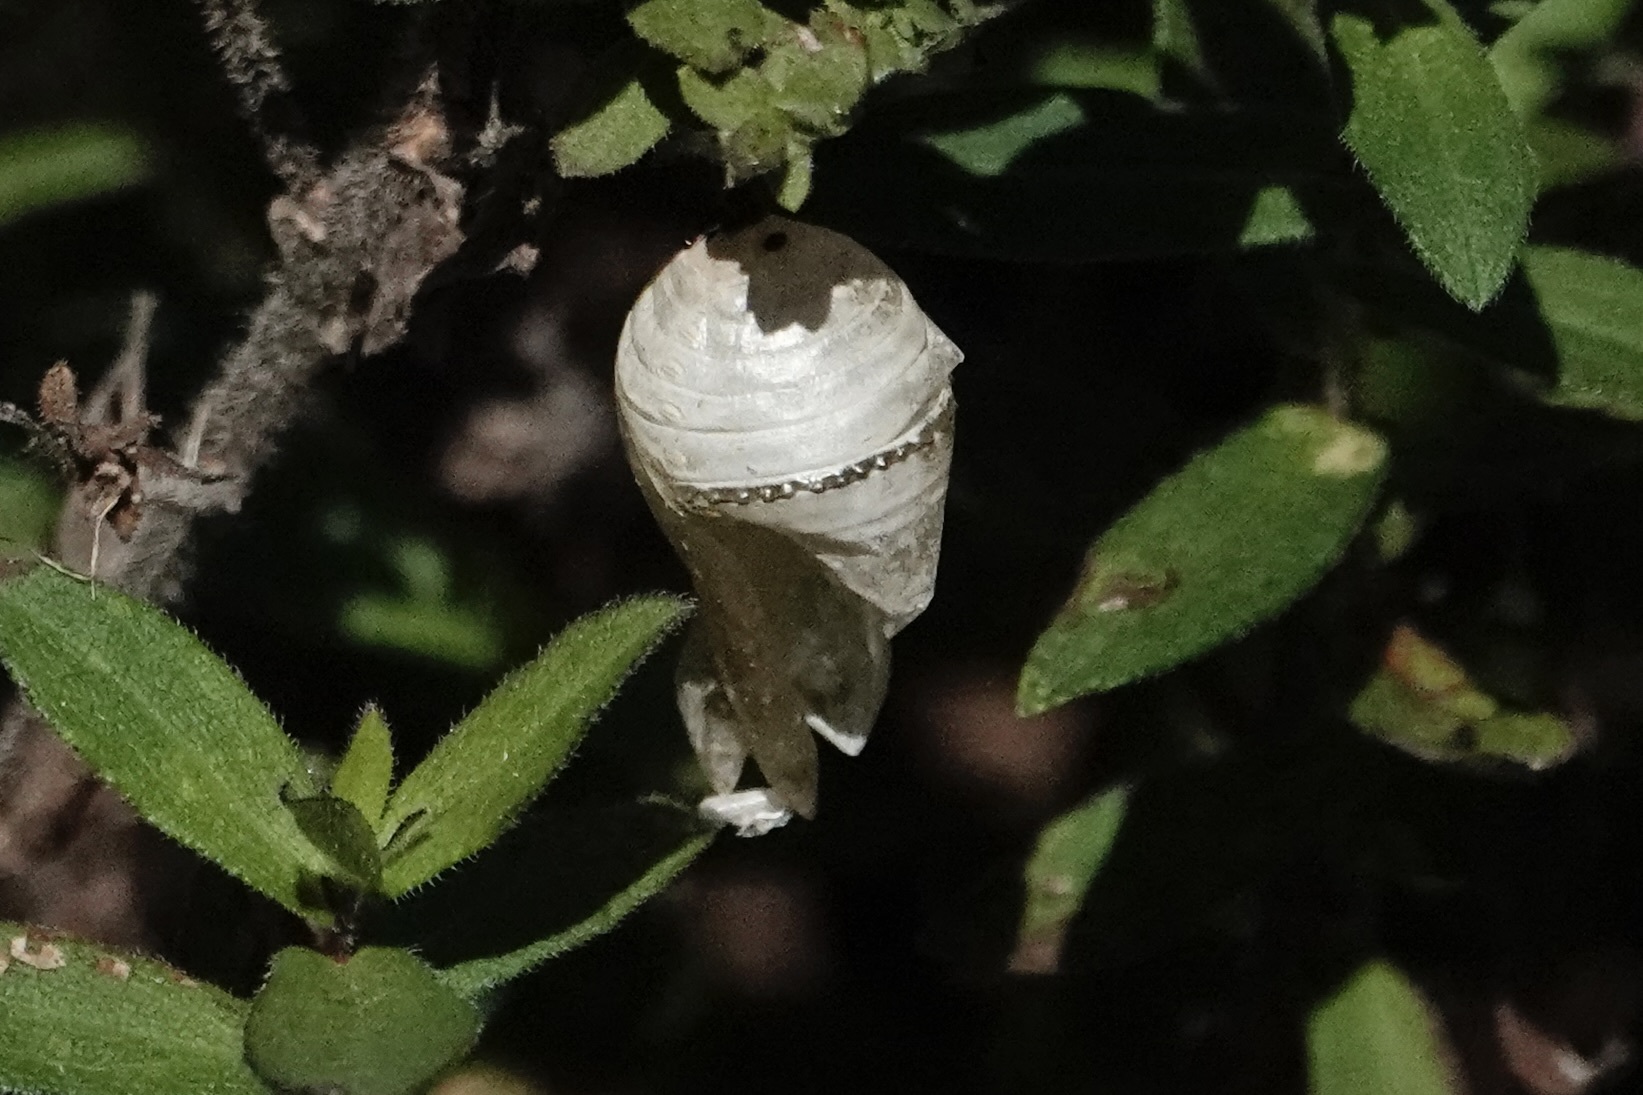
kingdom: Animalia
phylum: Arthropoda
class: Insecta
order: Lepidoptera
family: Nymphalidae
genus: Danaus
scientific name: Danaus plexippus
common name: Monarch
